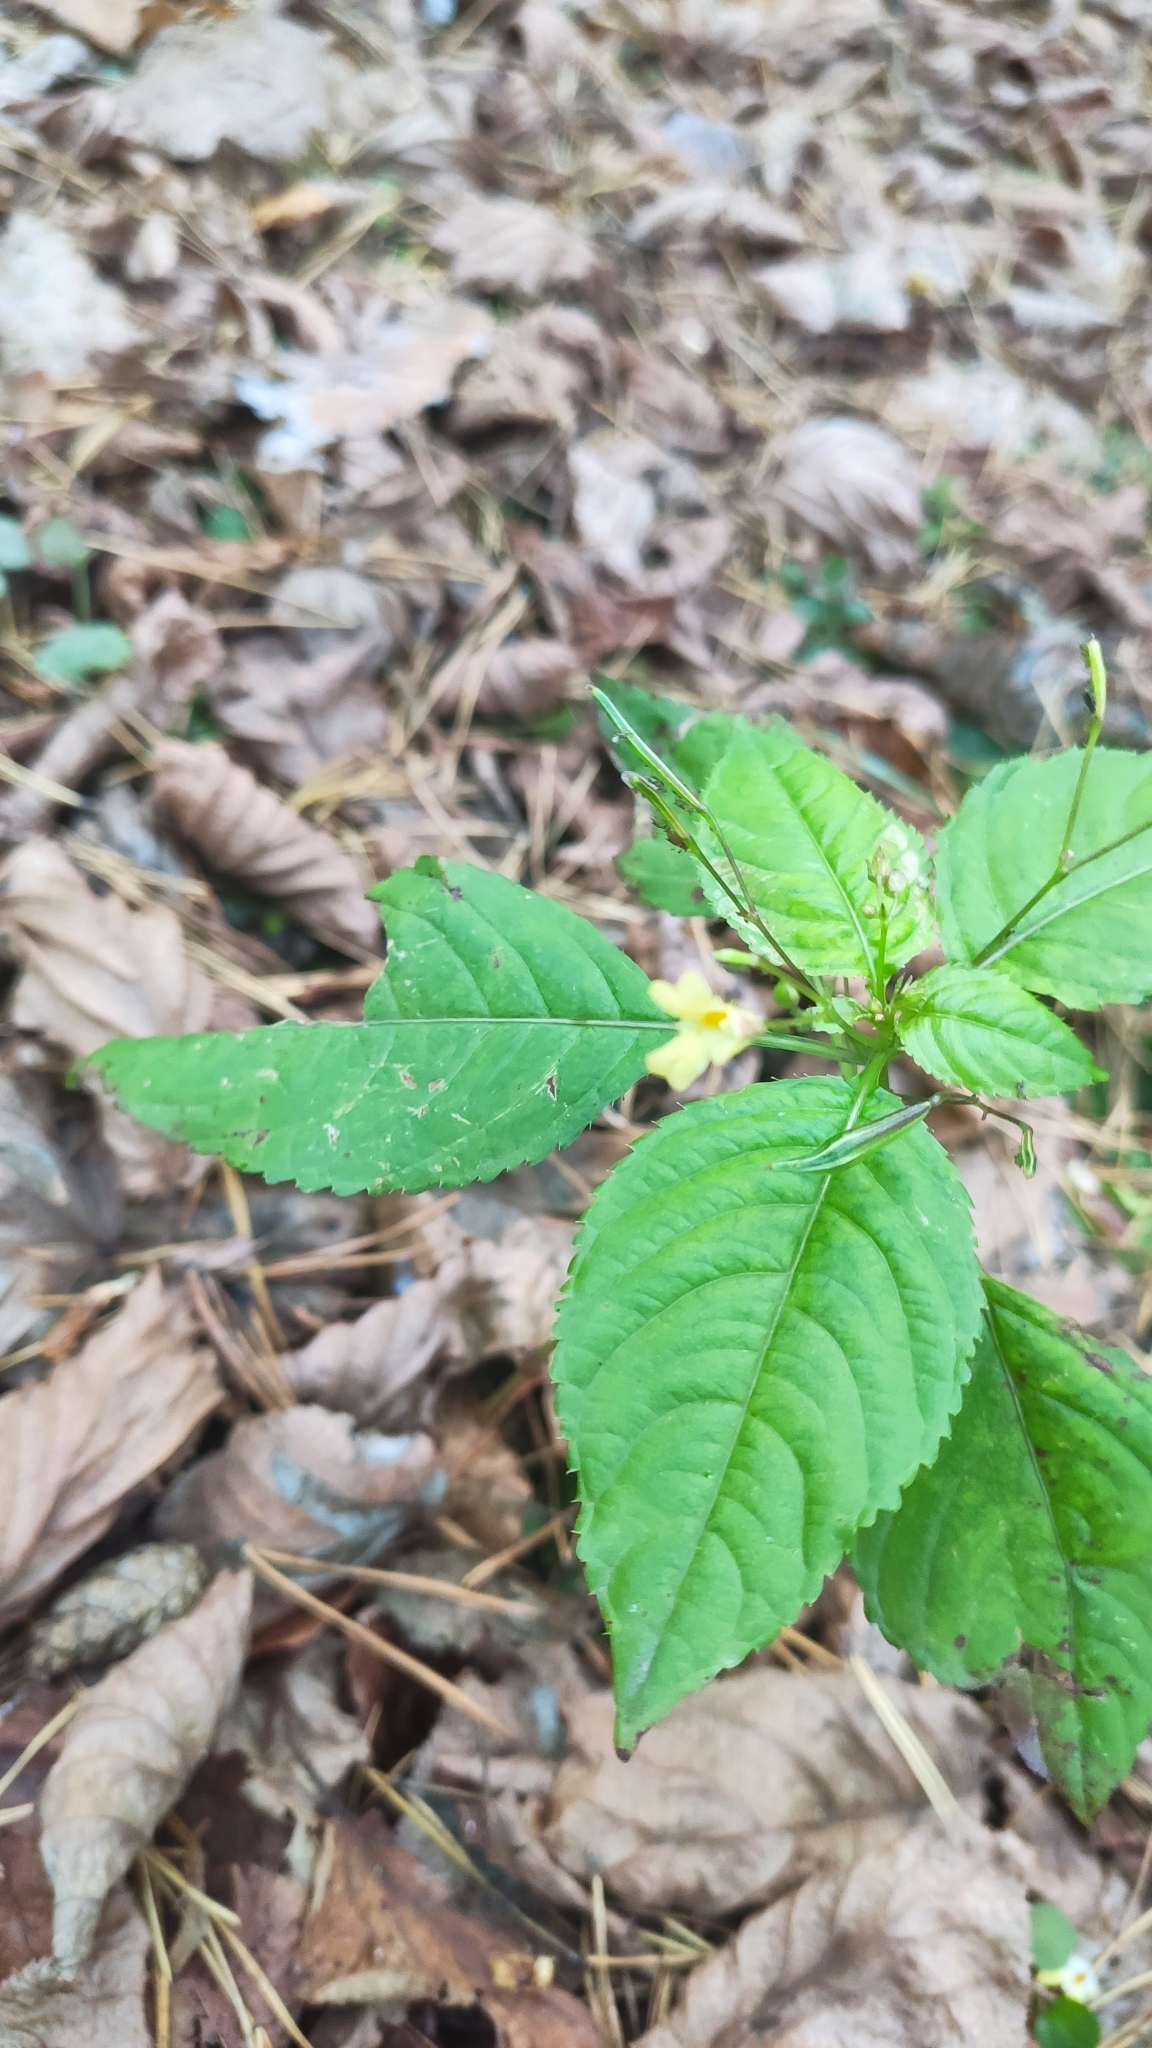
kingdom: Plantae
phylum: Tracheophyta
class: Magnoliopsida
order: Ericales
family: Balsaminaceae
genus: Impatiens
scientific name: Impatiens parviflora
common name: Small balsam
